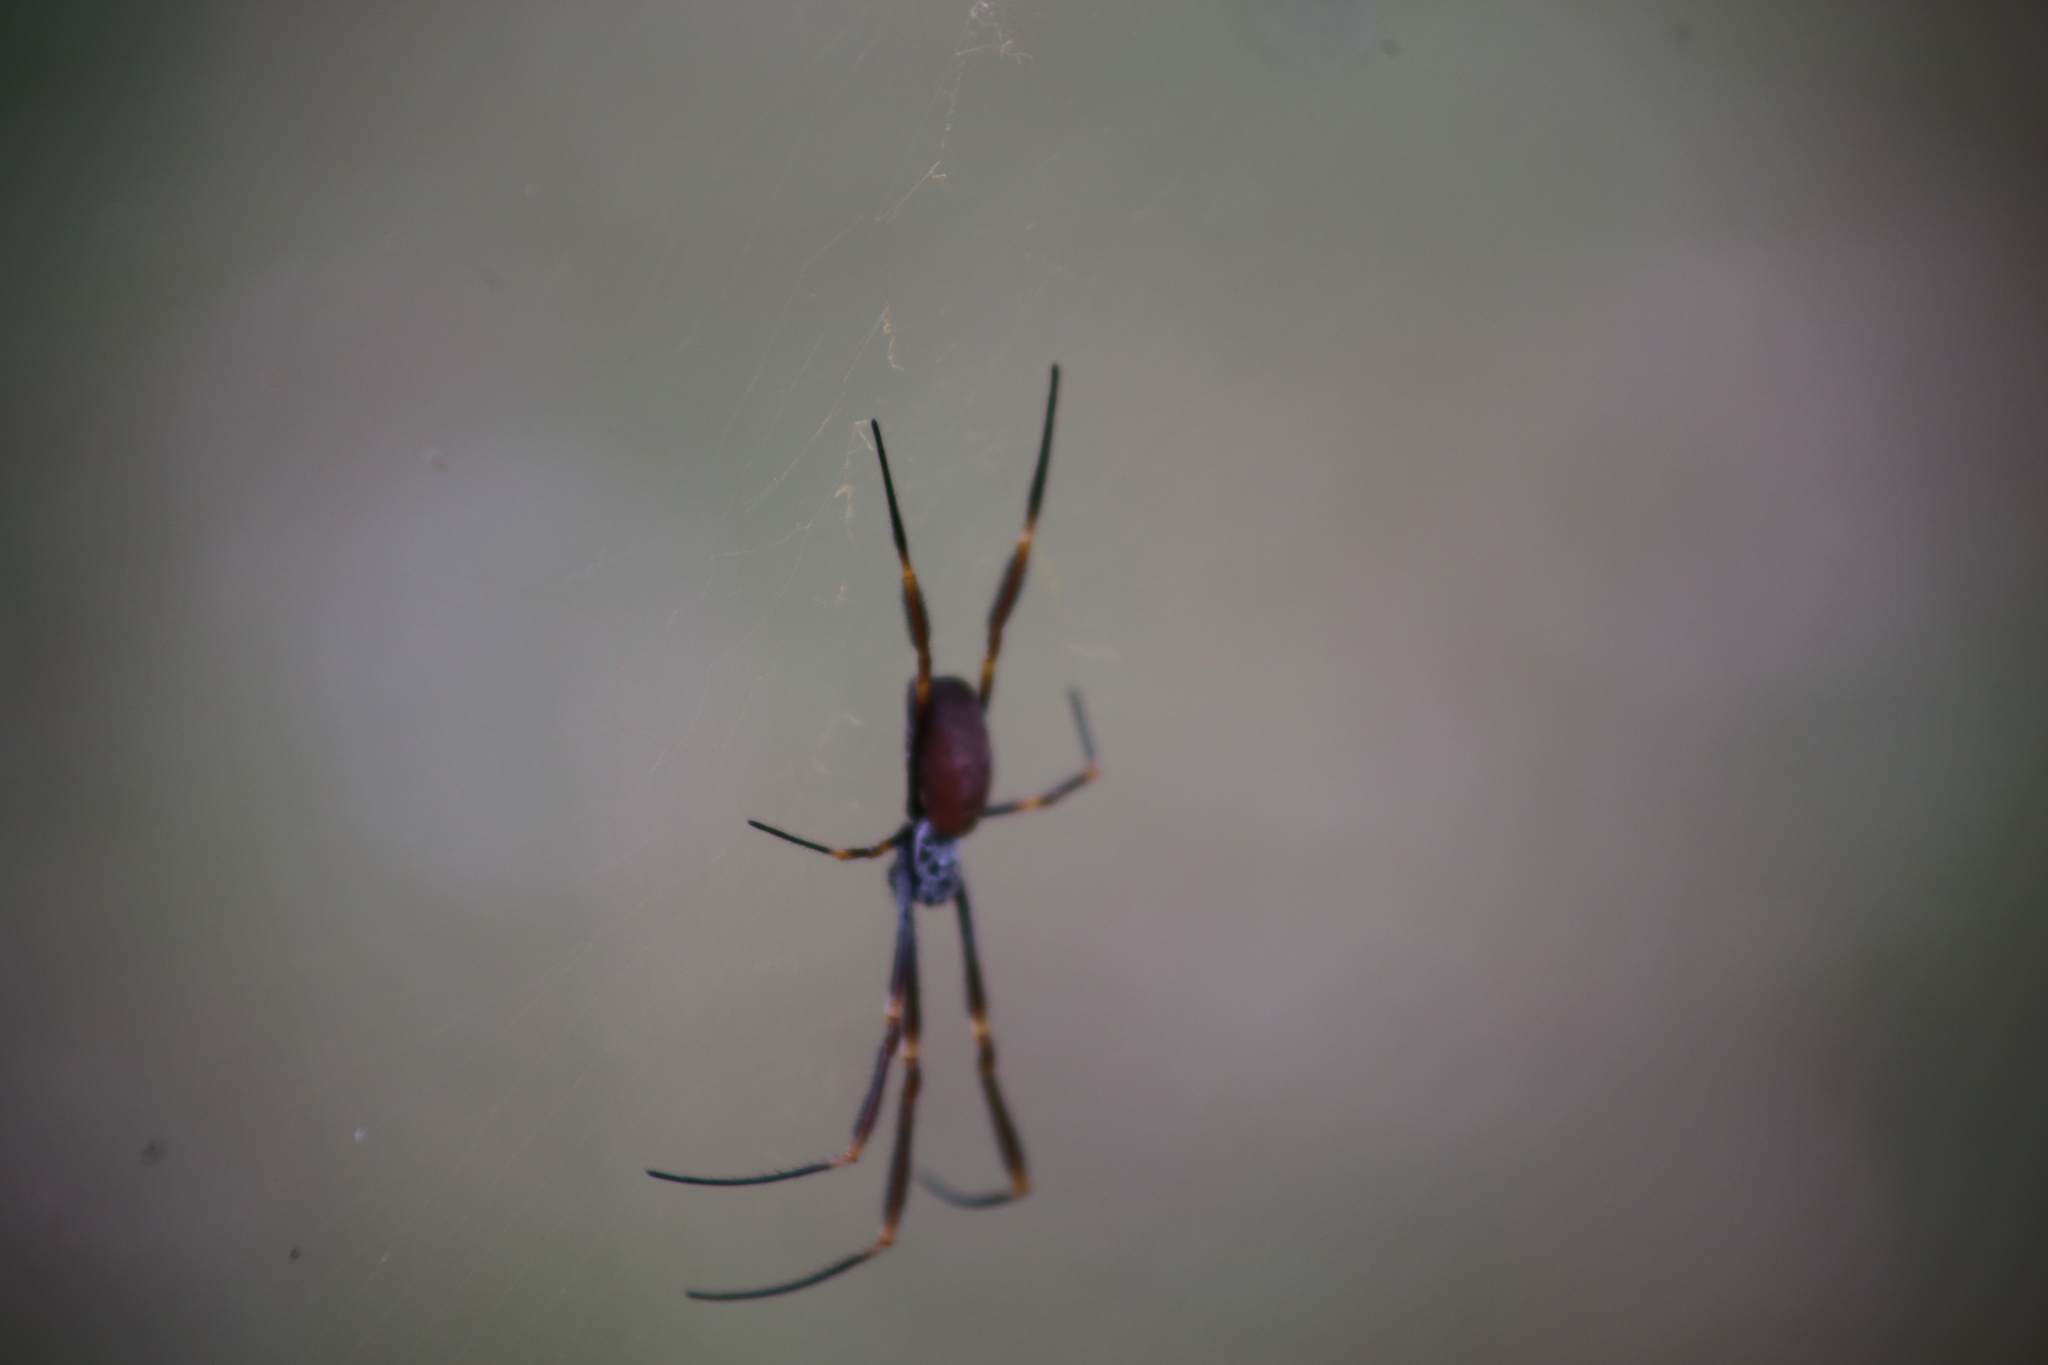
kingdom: Animalia
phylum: Arthropoda
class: Arachnida
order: Araneae
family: Araneidae
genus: Trichonephila
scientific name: Trichonephila plumipes
